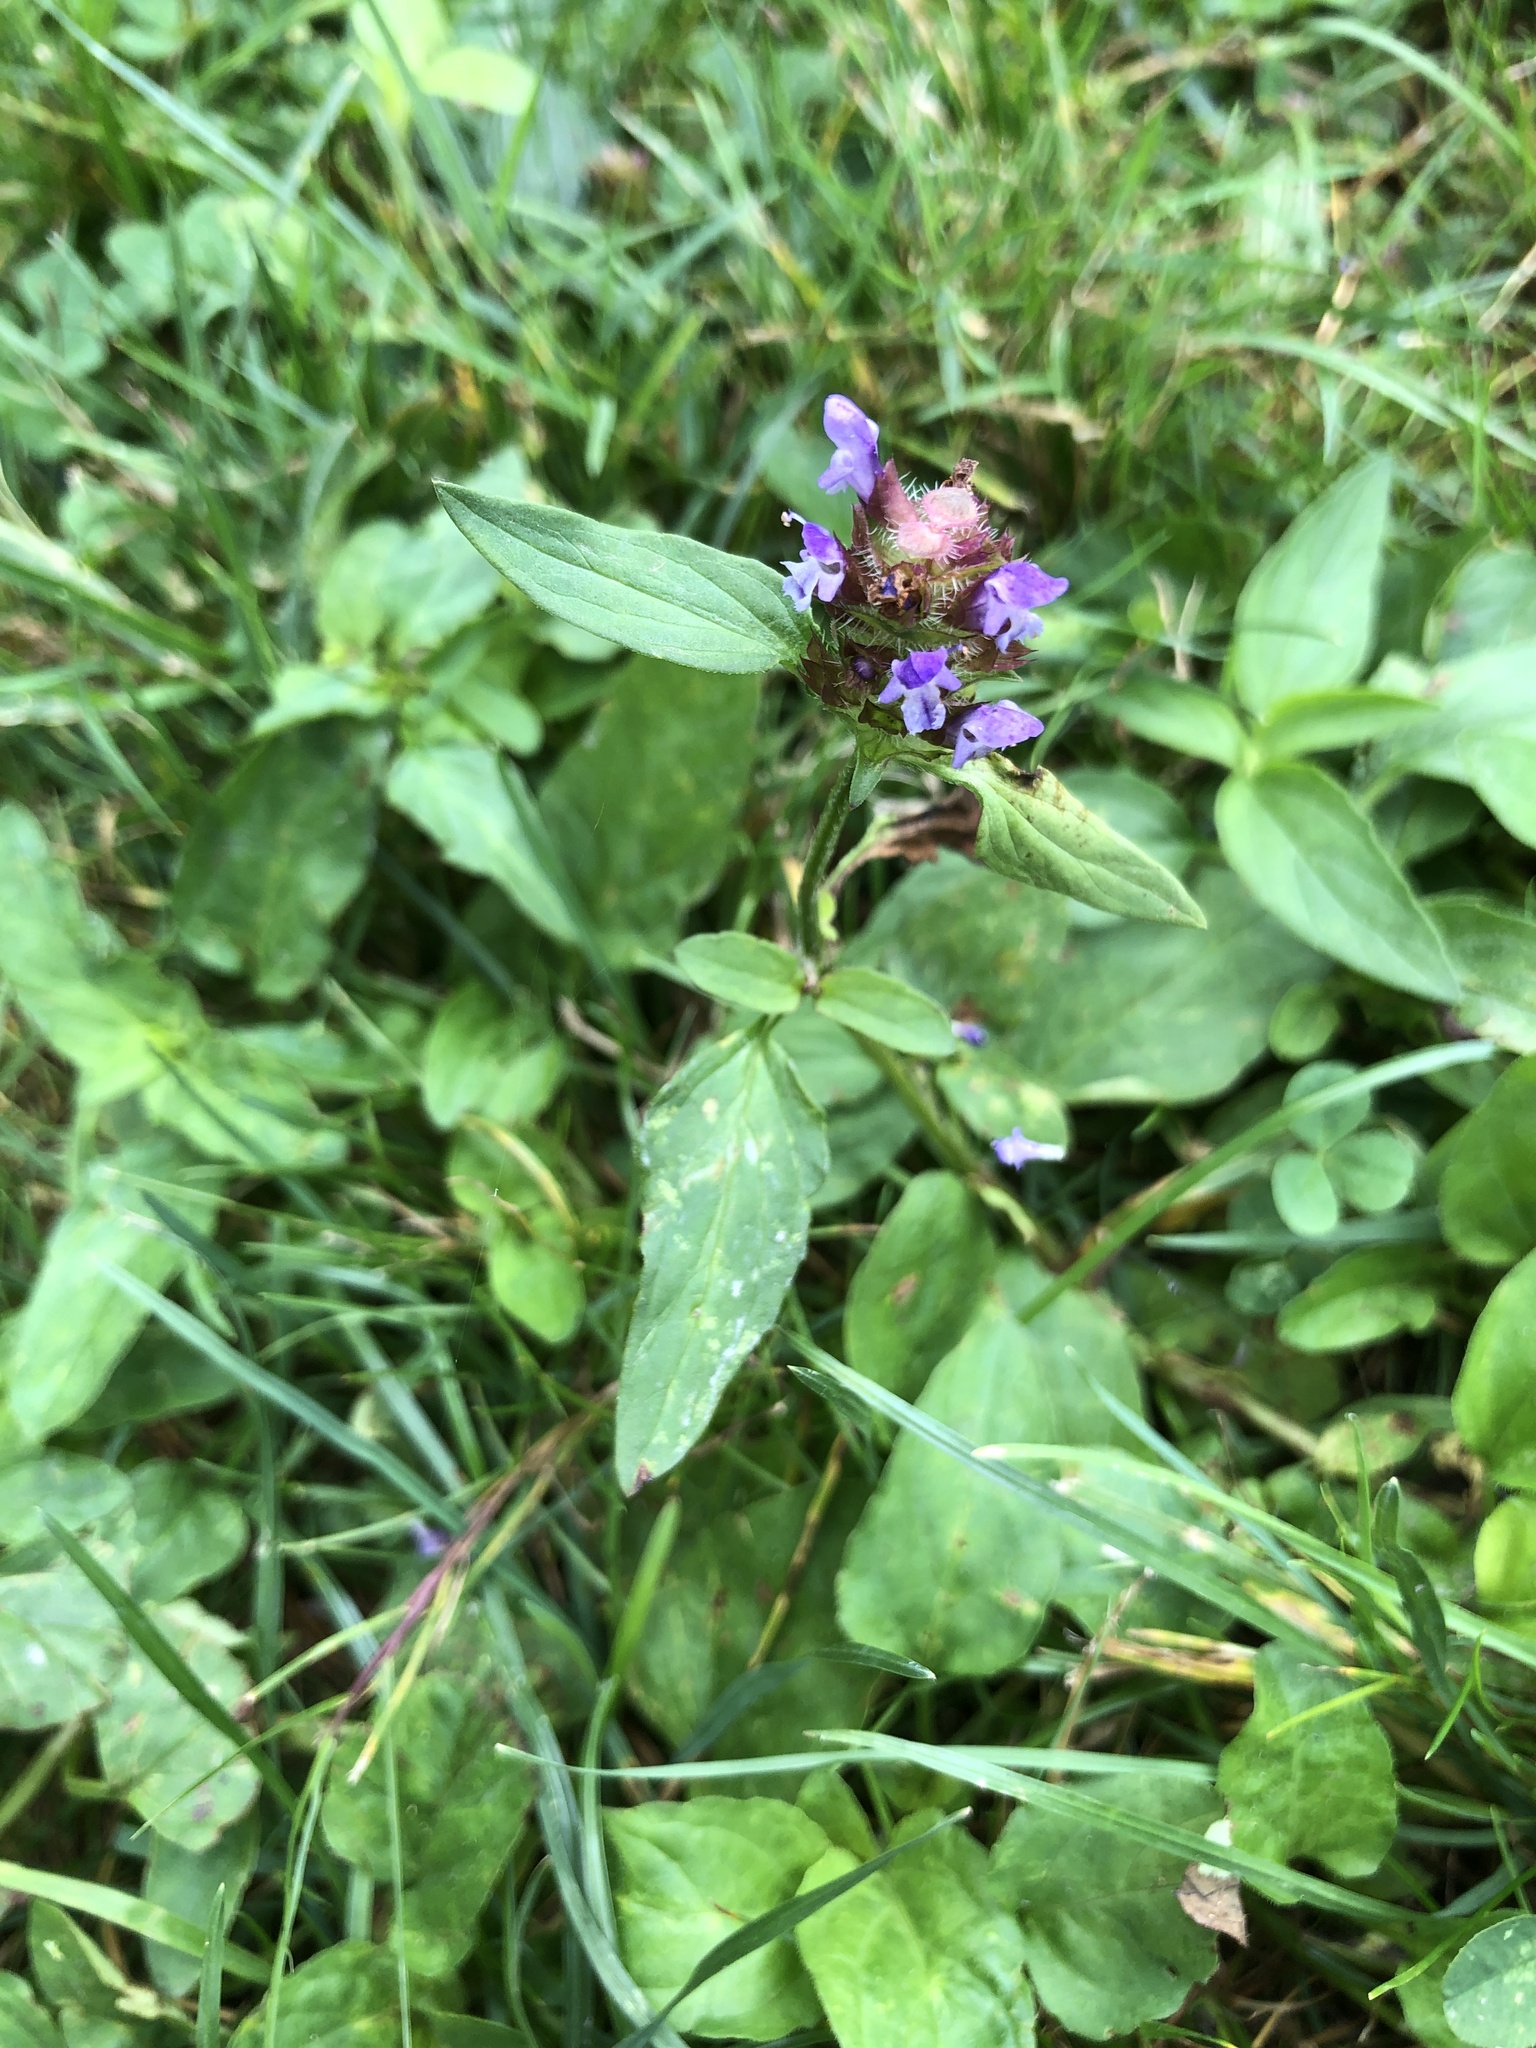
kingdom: Plantae
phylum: Tracheophyta
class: Magnoliopsida
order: Lamiales
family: Lamiaceae
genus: Prunella
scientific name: Prunella vulgaris
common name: Heal-all
